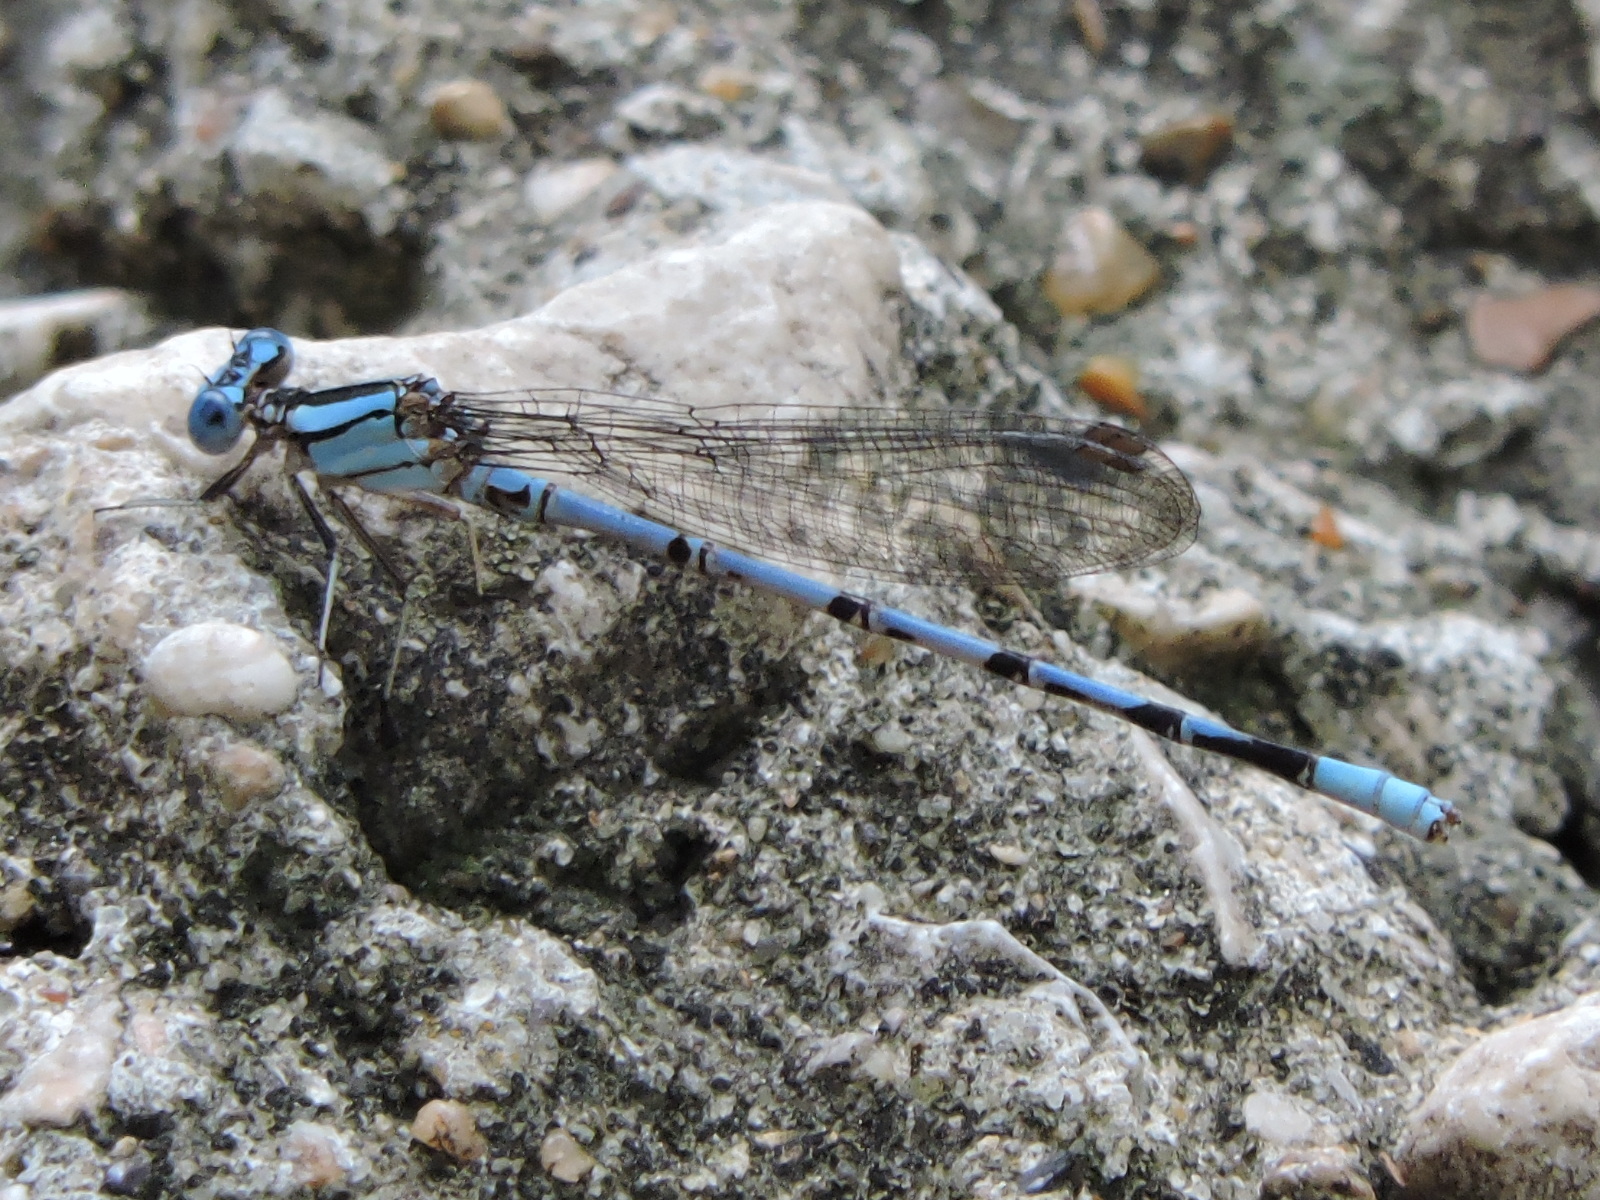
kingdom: Animalia
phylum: Arthropoda
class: Insecta
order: Odonata
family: Coenagrionidae
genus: Argia
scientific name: Argia funebris
